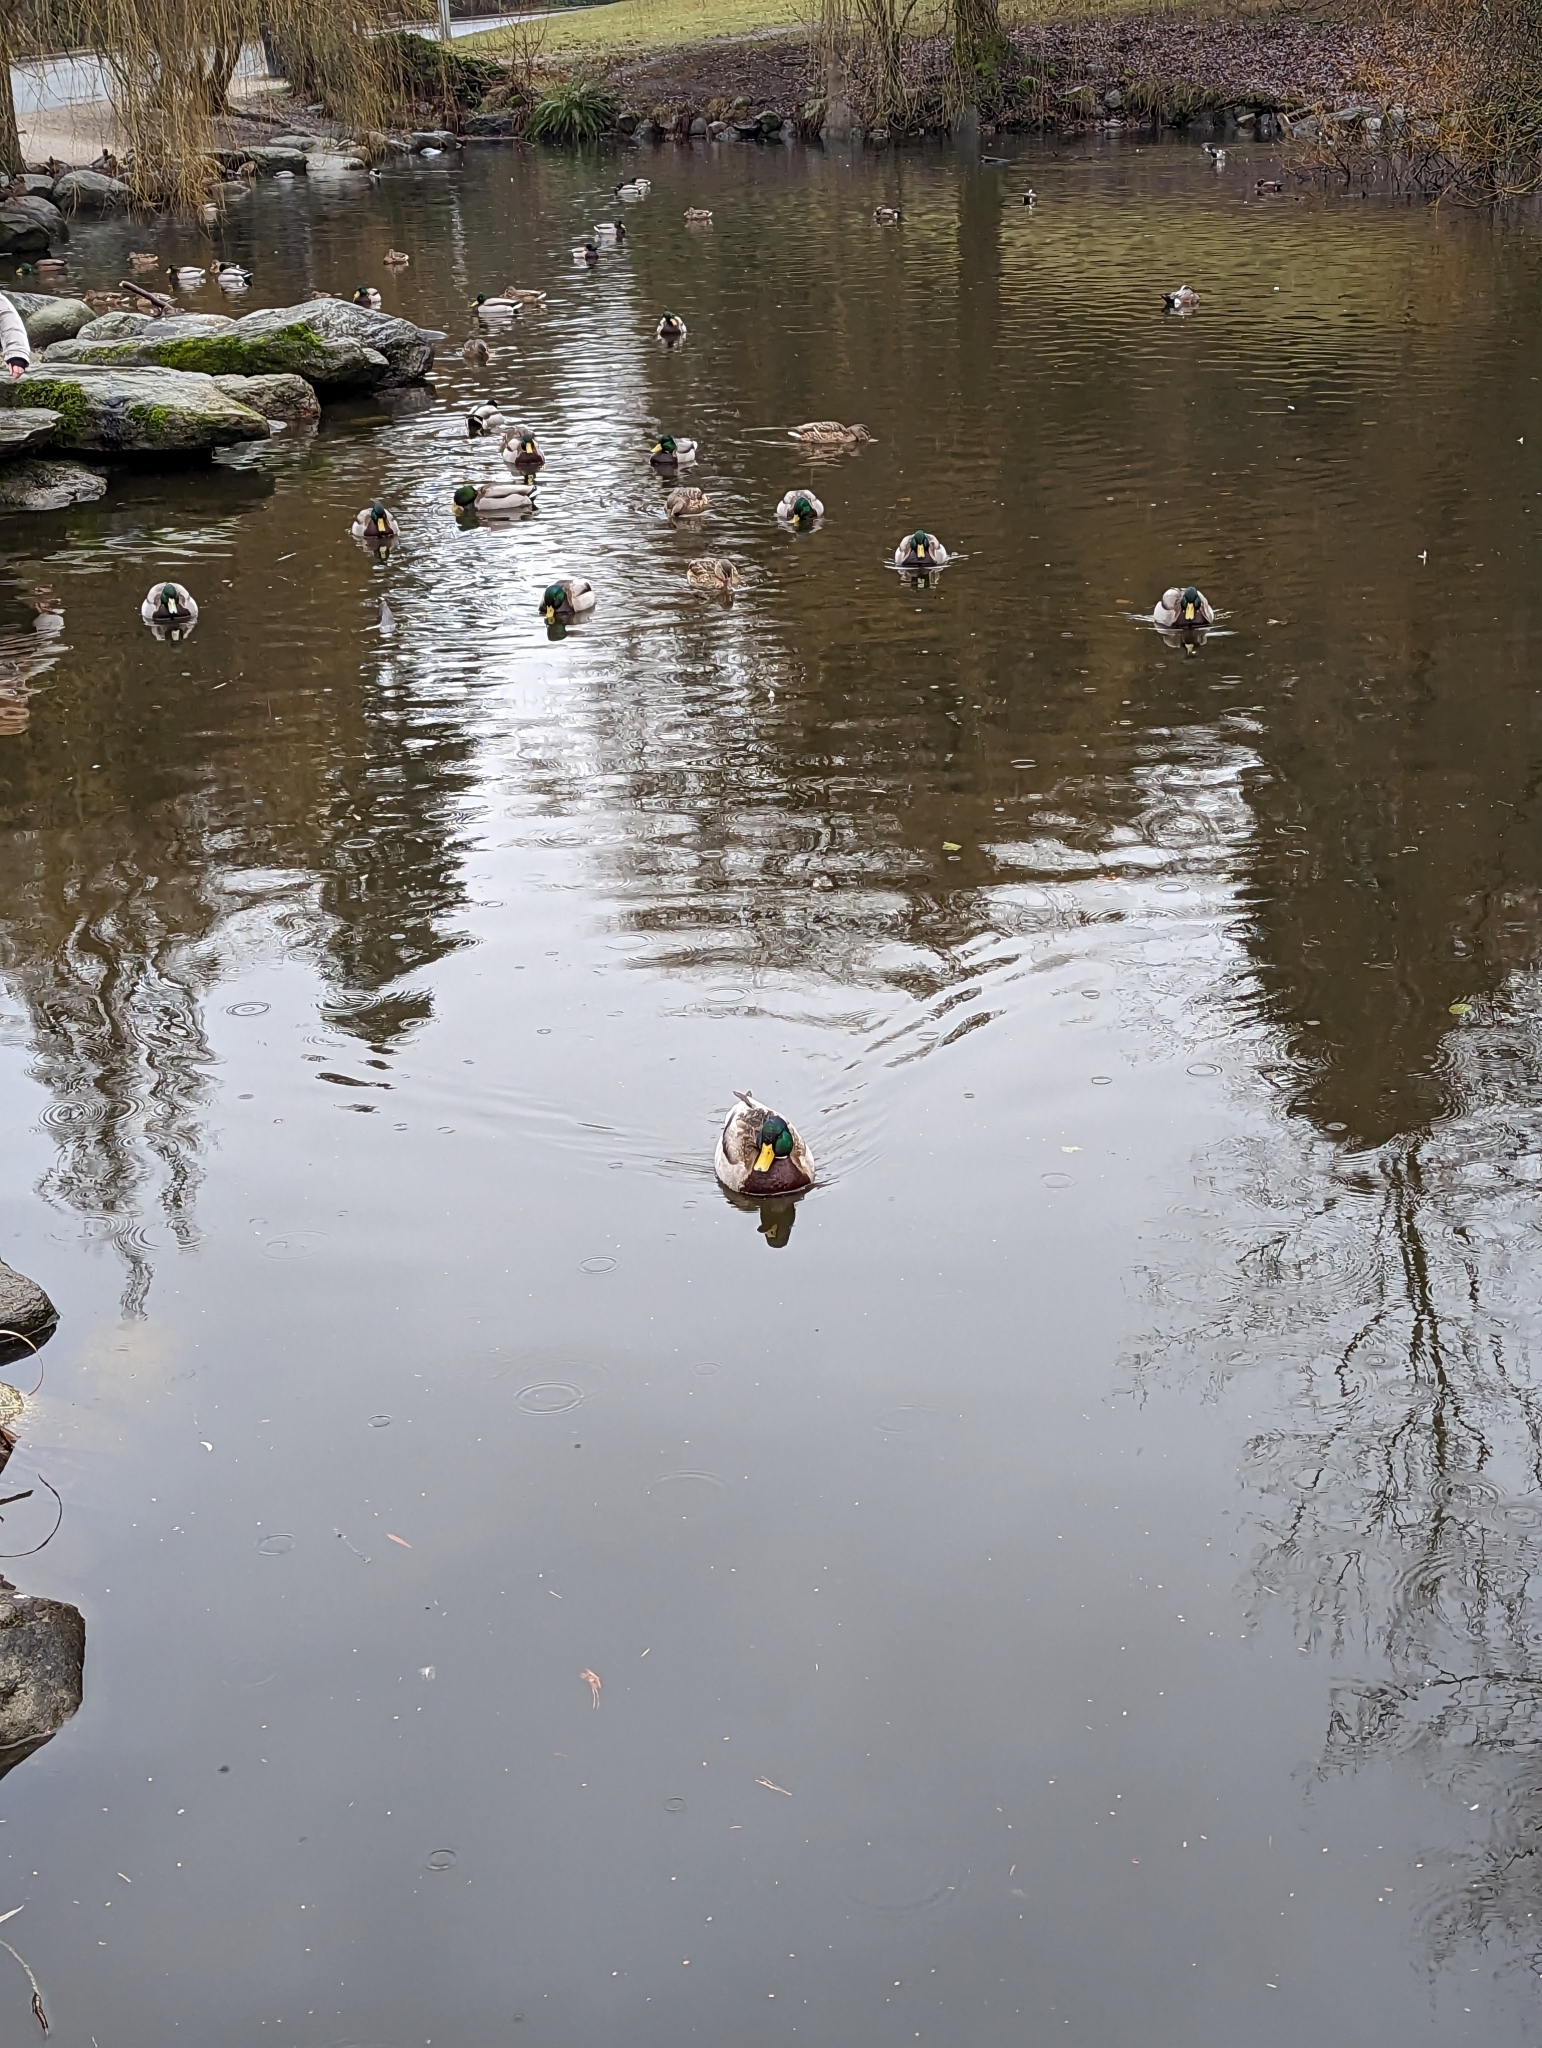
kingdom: Animalia
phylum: Chordata
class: Aves
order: Anseriformes
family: Anatidae
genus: Anas
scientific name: Anas platyrhynchos
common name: Mallard
